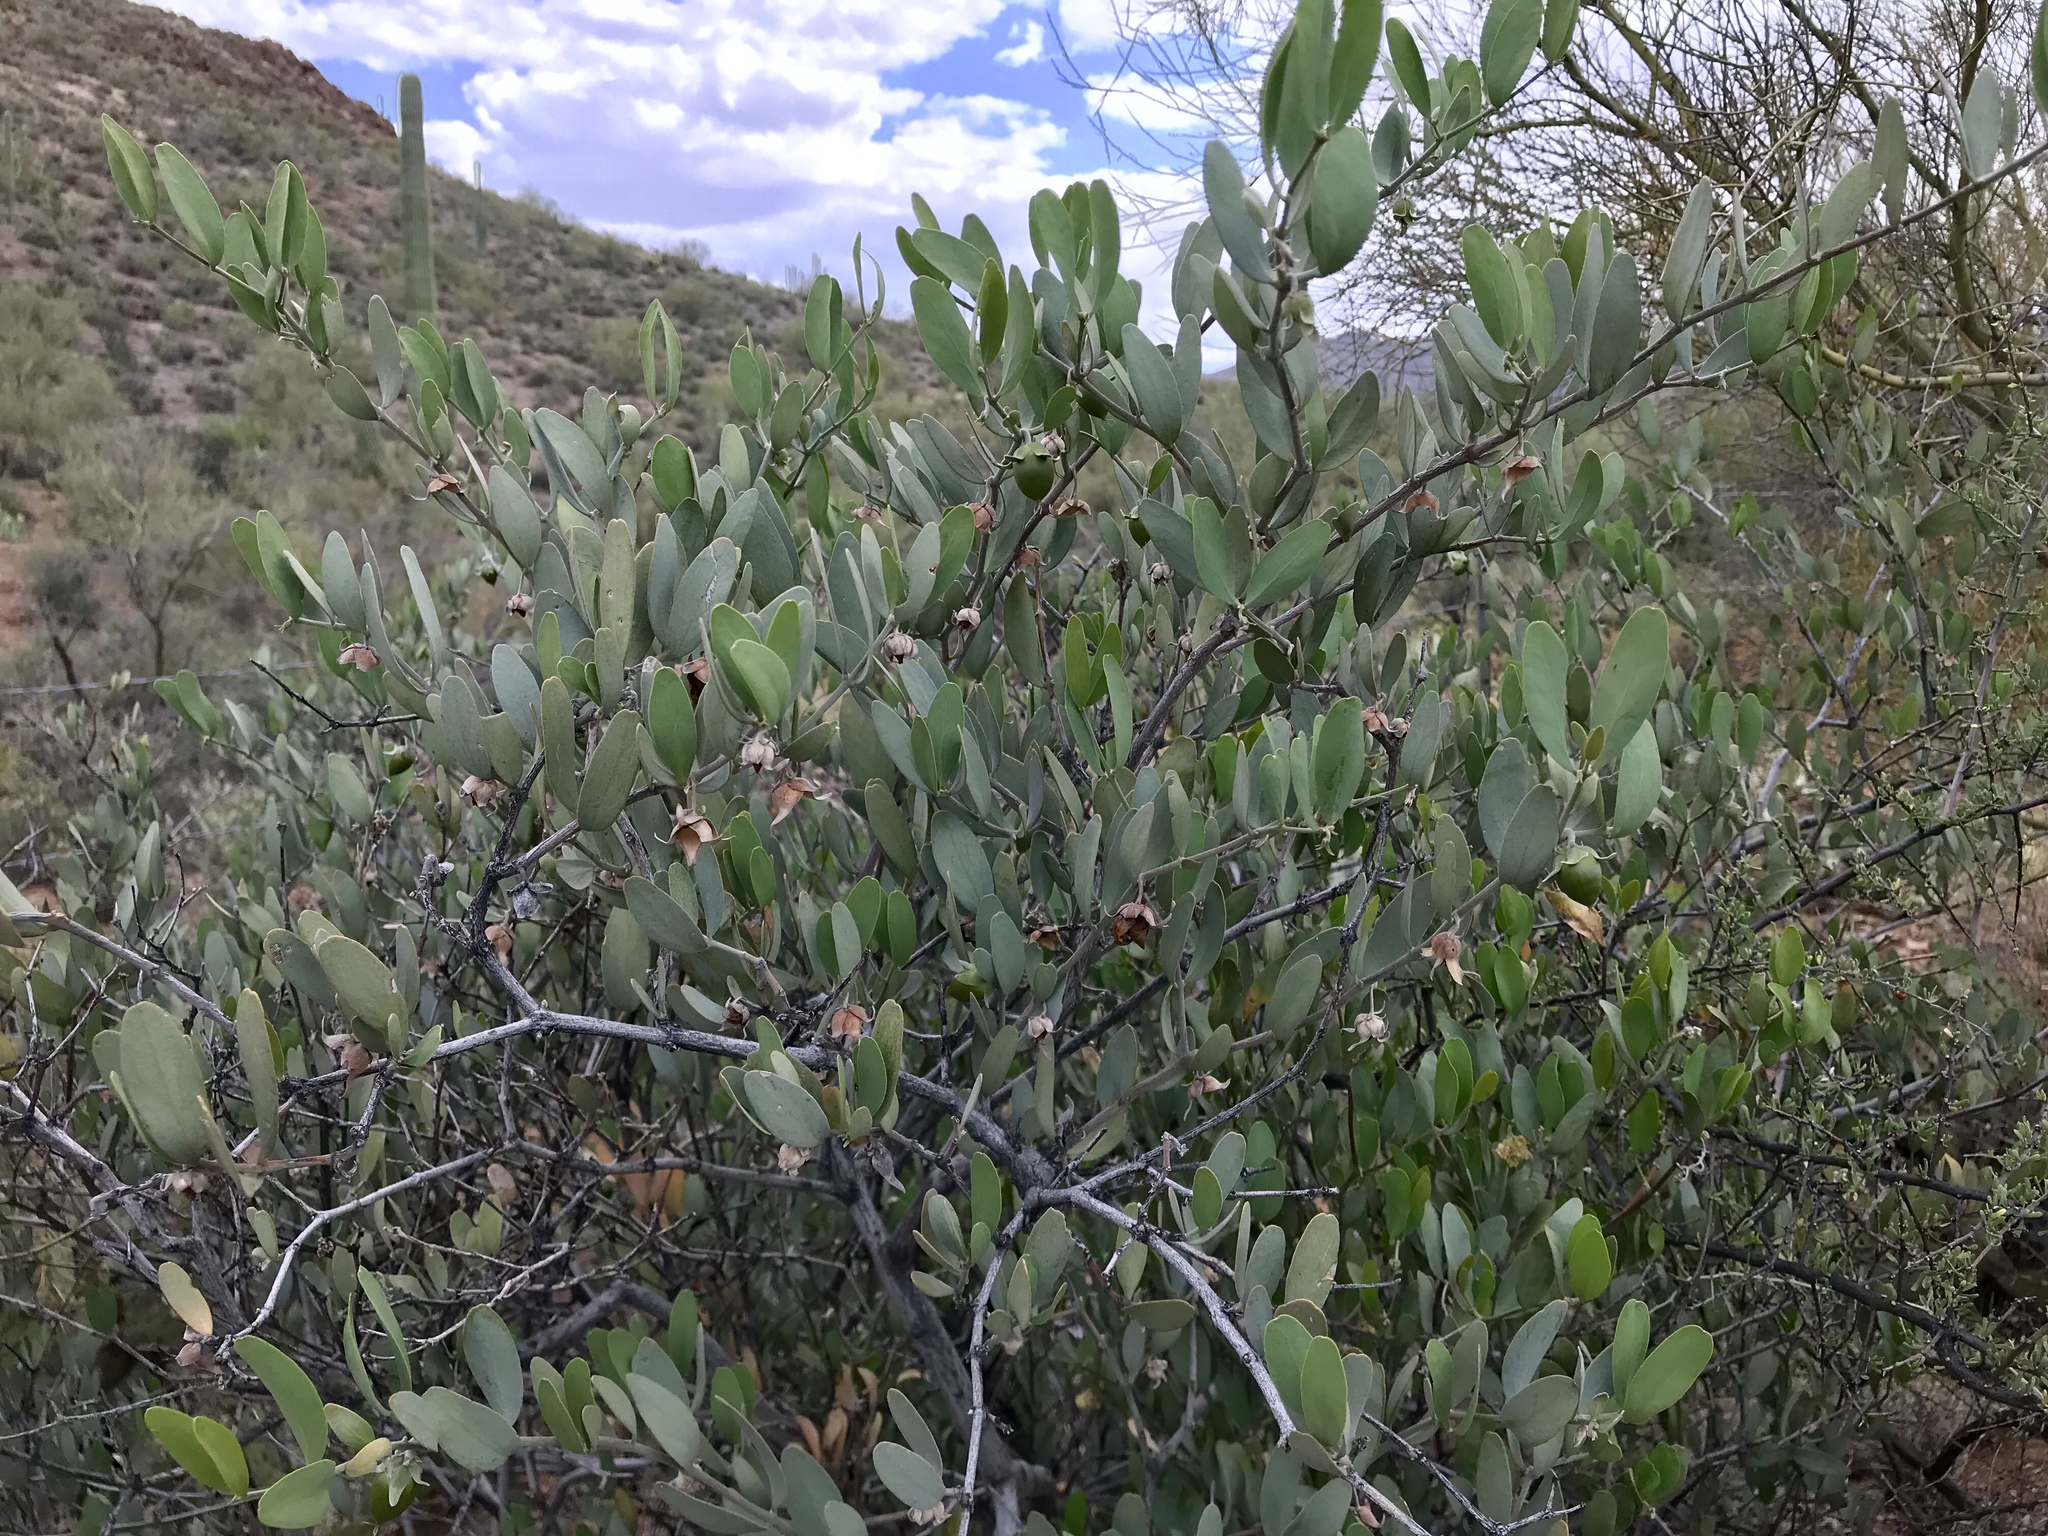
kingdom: Plantae
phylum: Tracheophyta
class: Magnoliopsida
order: Caryophyllales
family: Simmondsiaceae
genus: Simmondsia
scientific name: Simmondsia chinensis
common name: Jojoba
